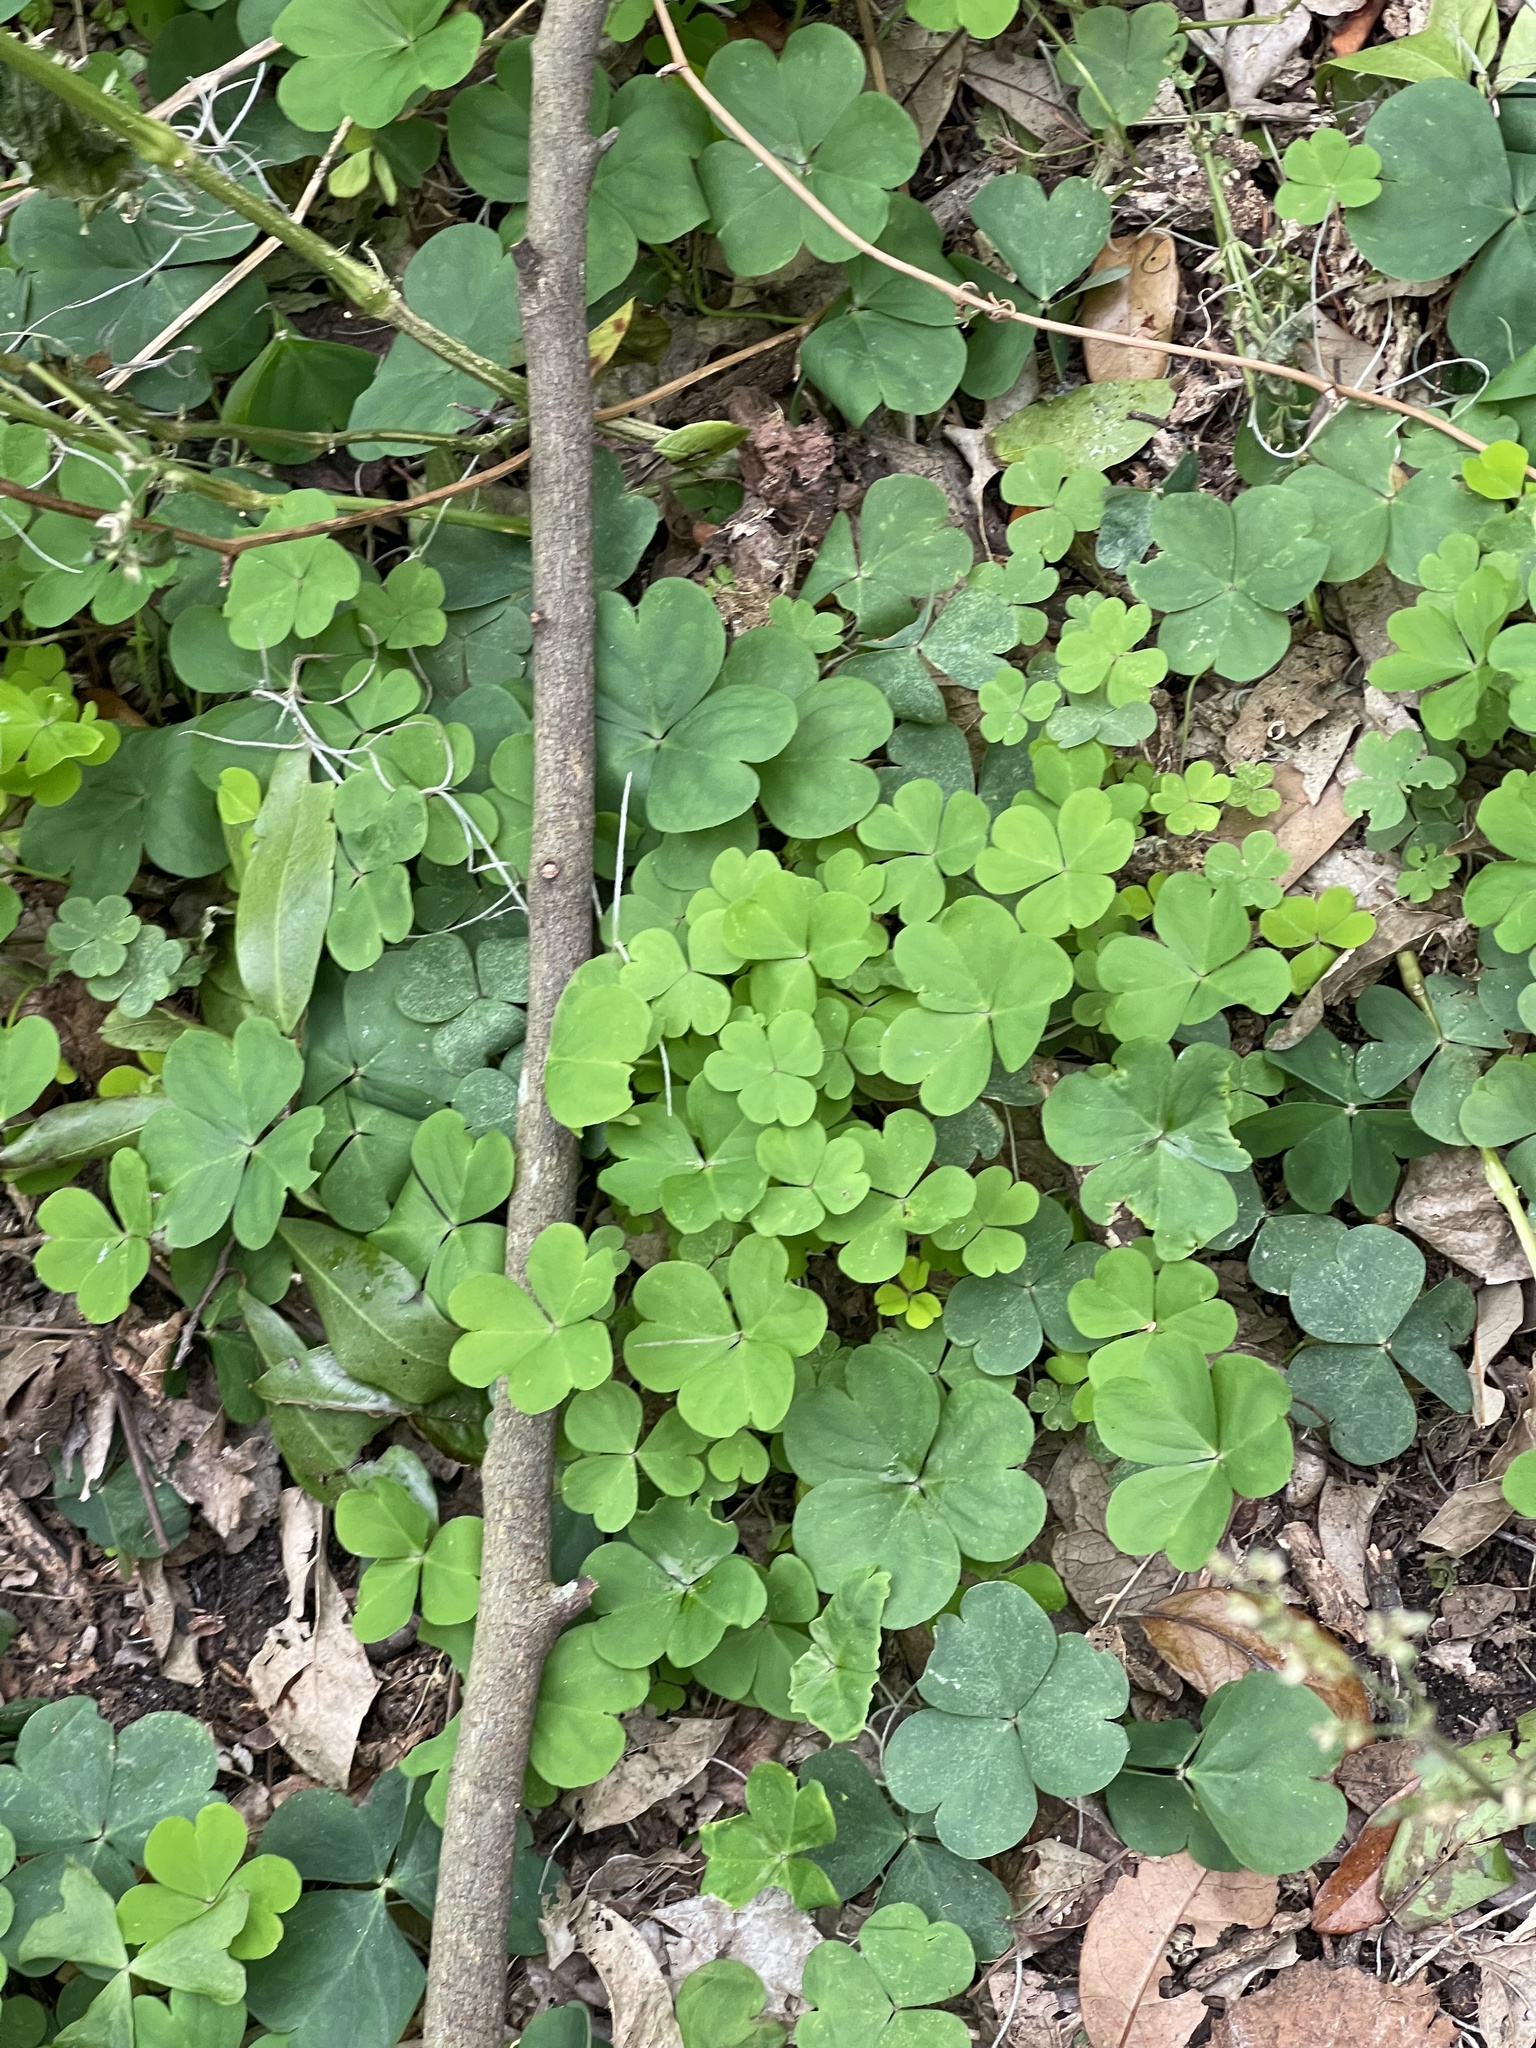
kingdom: Plantae
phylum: Tracheophyta
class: Magnoliopsida
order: Oxalidales
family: Oxalidaceae
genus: Oxalis
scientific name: Oxalis debilis
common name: Large-flowered pink-sorrel
